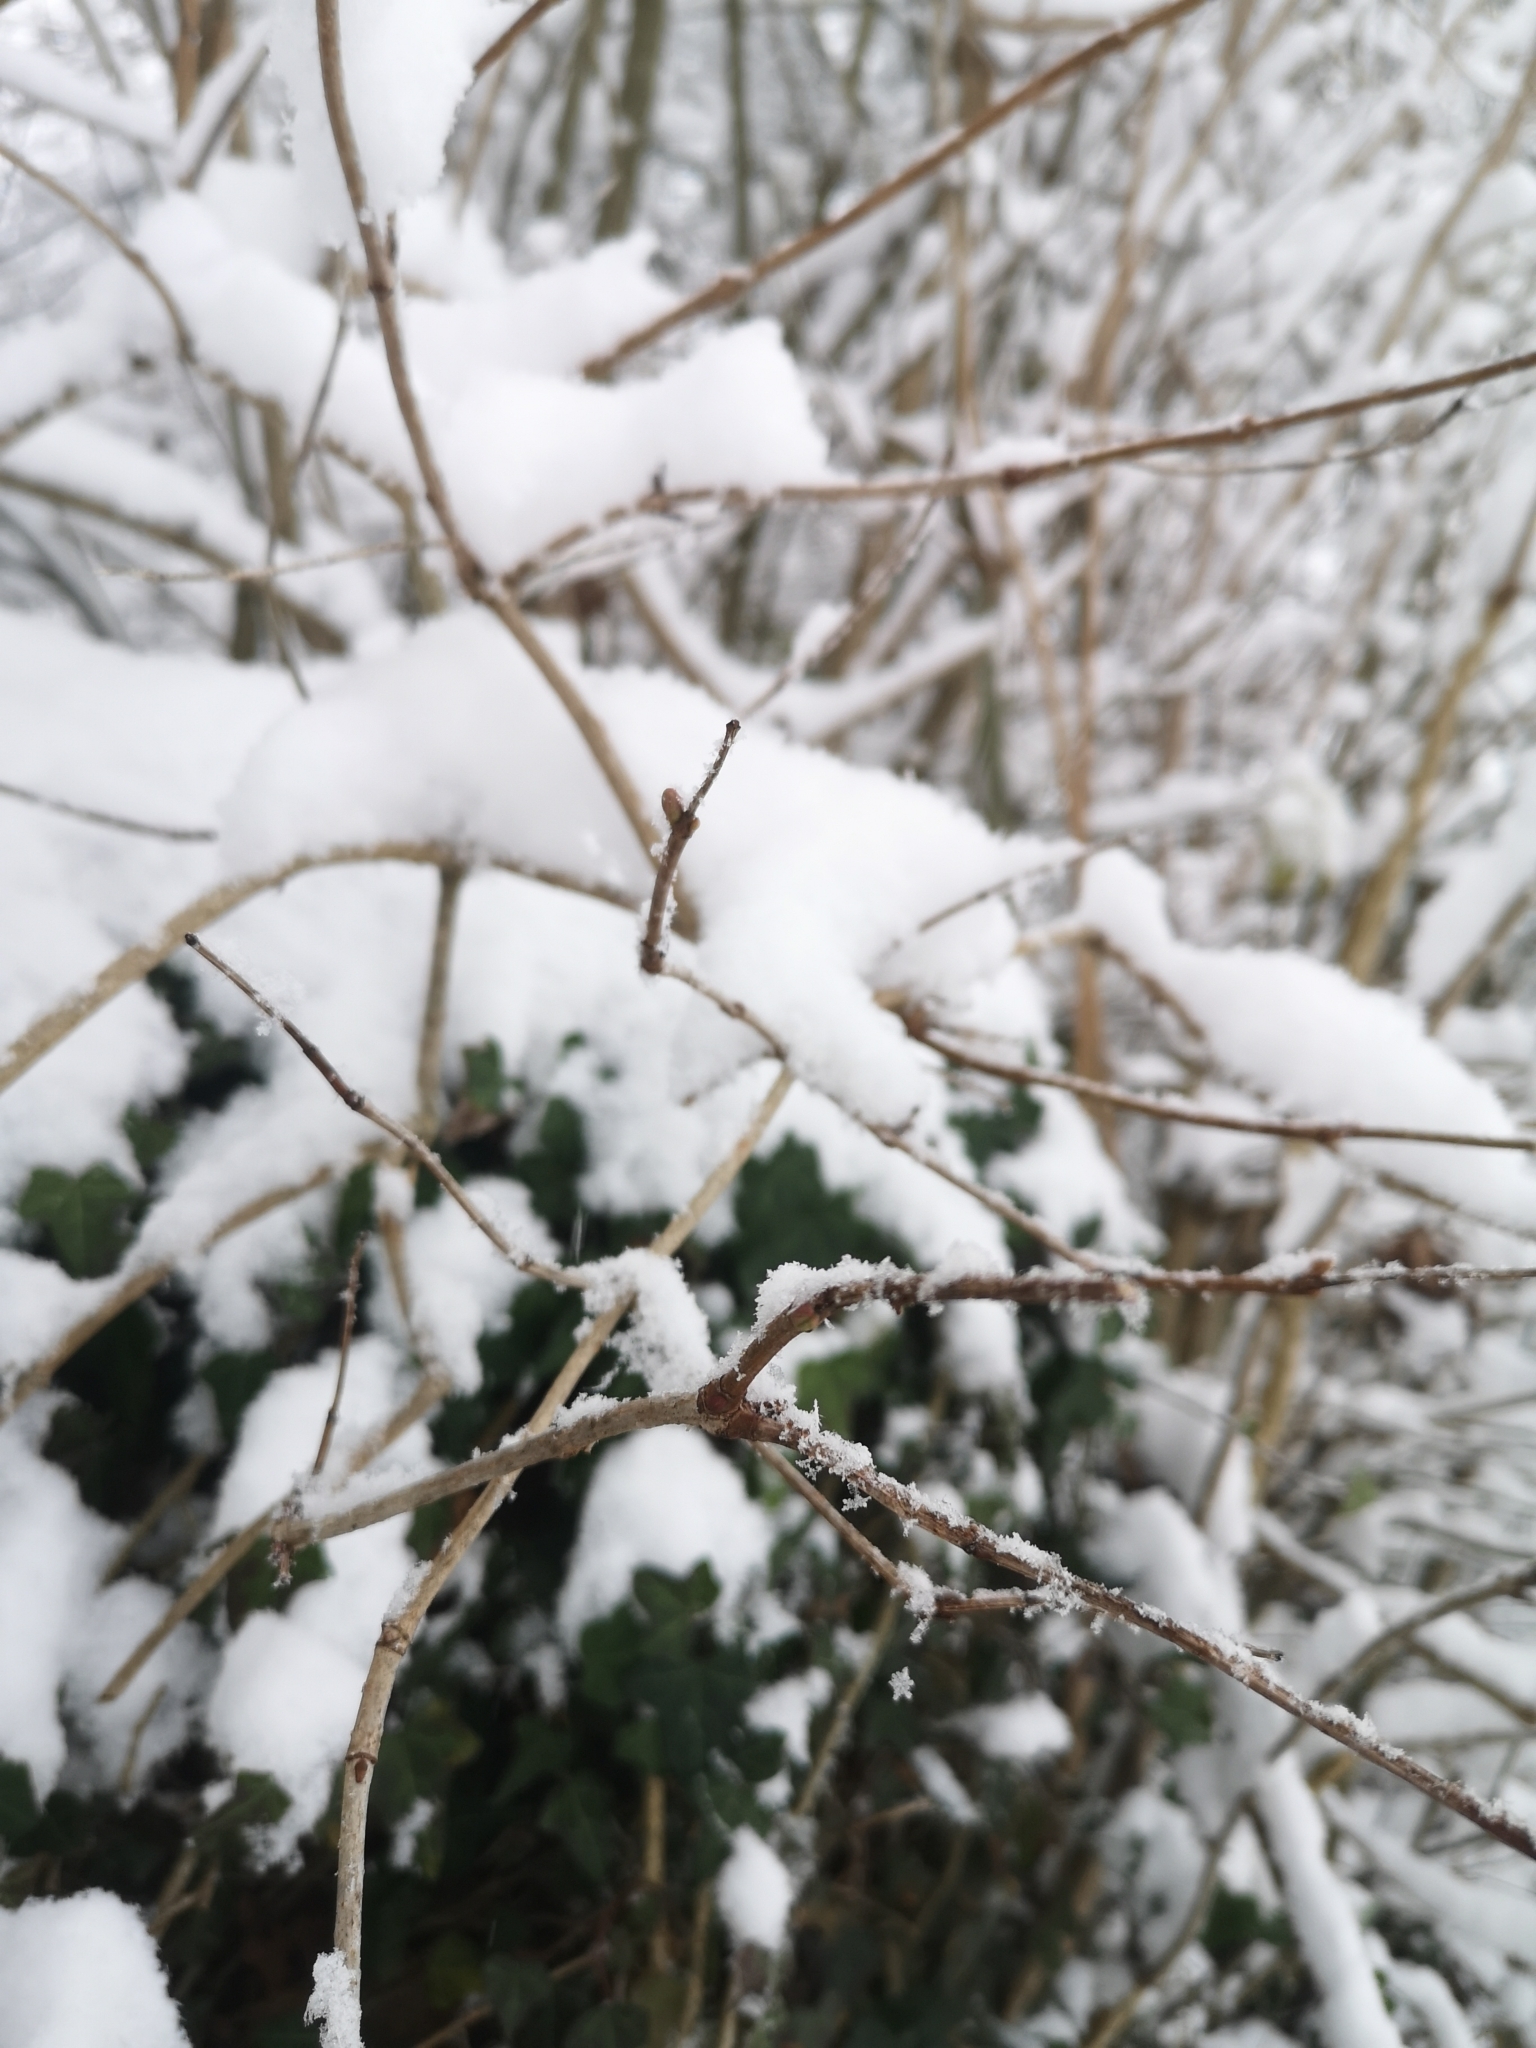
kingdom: Plantae
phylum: Tracheophyta
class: Magnoliopsida
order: Dipsacales
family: Viburnaceae
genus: Viburnum
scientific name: Viburnum opulus
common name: Guelder-rose
